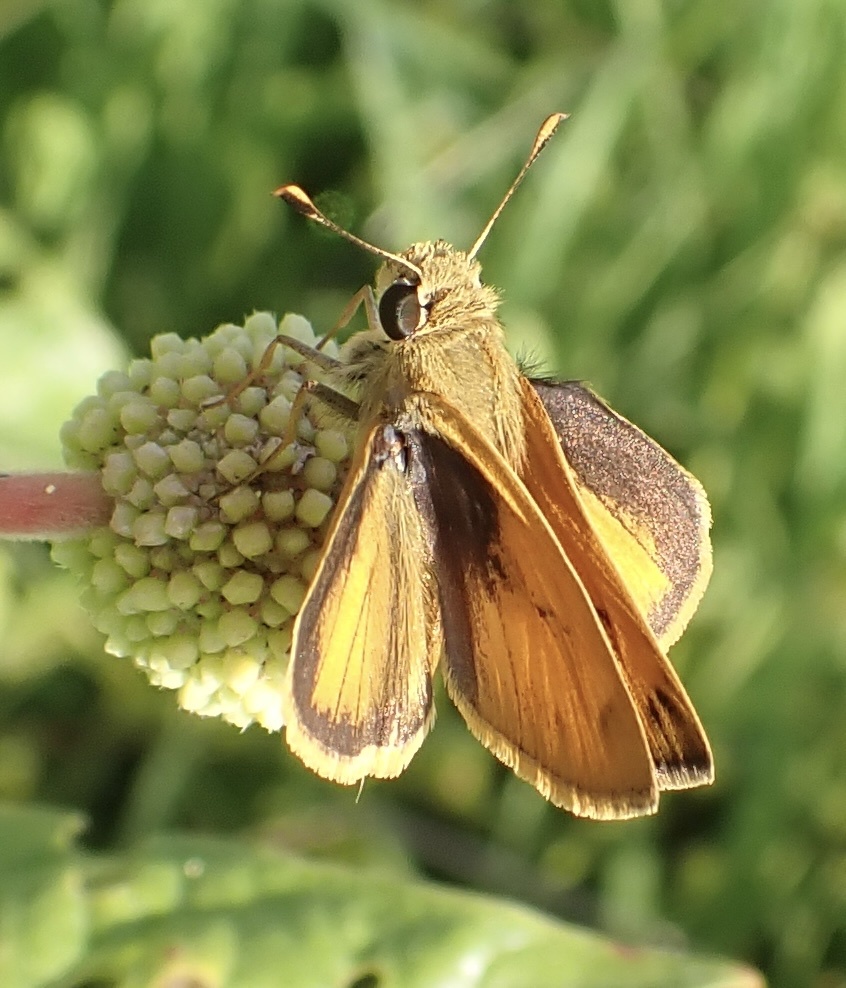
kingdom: Animalia
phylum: Arthropoda
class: Insecta
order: Lepidoptera
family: Hesperiidae
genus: Polites
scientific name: Polites vibex
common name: Whirlabout
